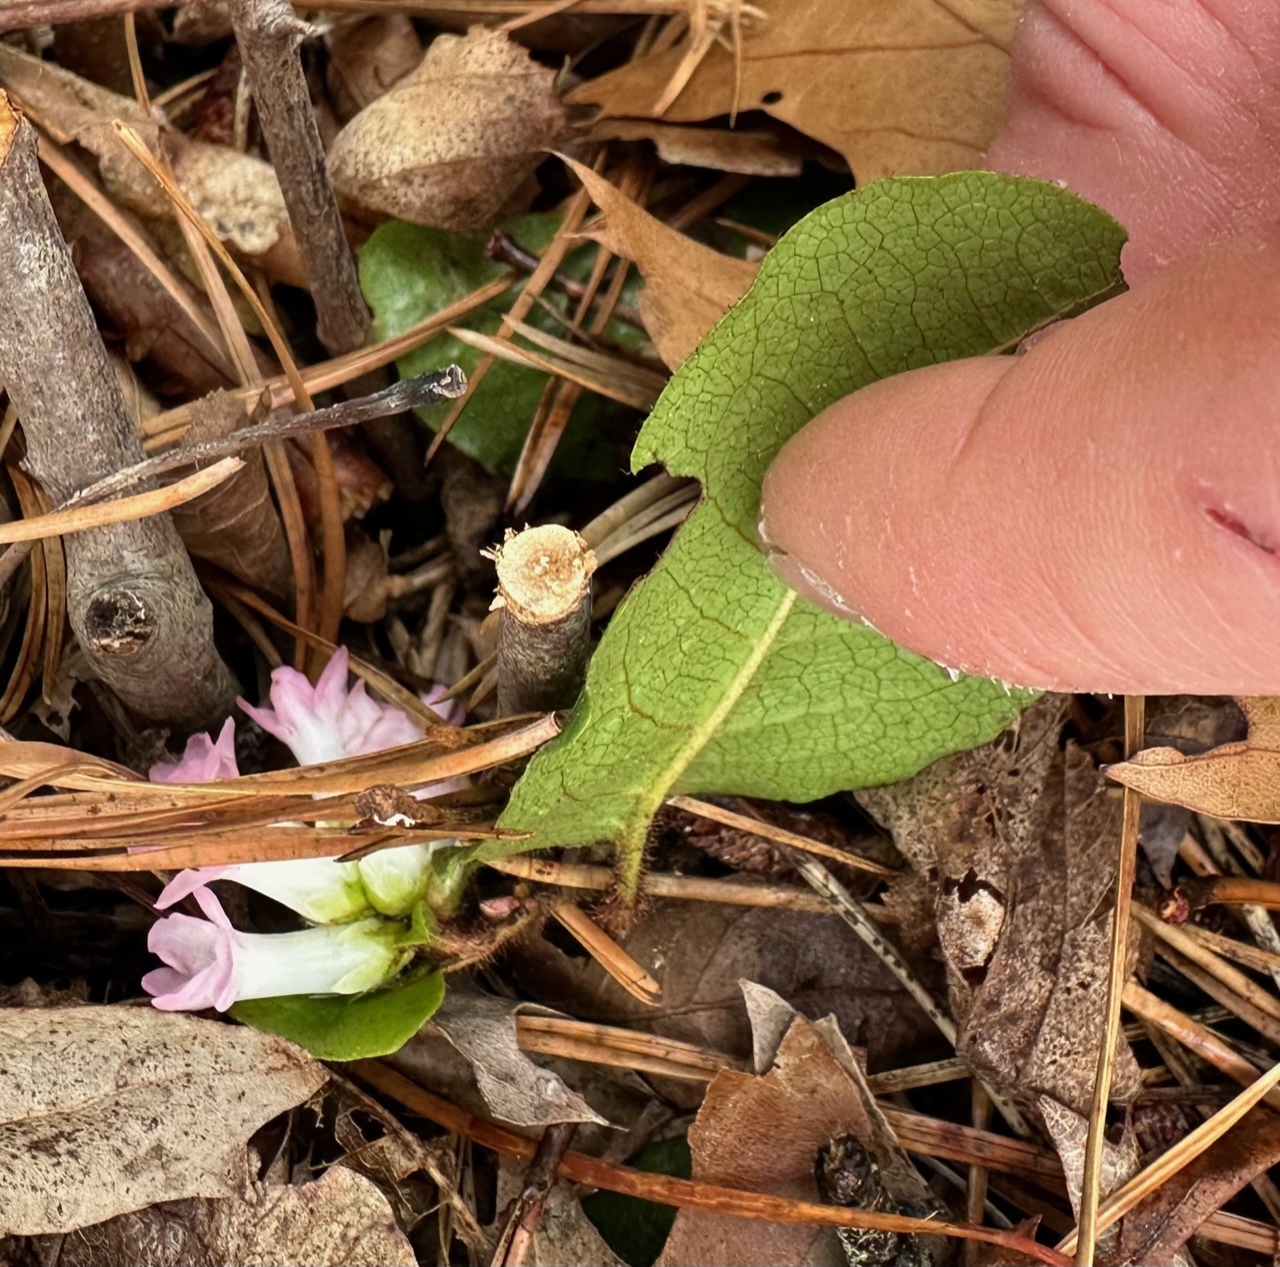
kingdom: Plantae
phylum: Tracheophyta
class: Magnoliopsida
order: Ericales
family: Ericaceae
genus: Epigaea
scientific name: Epigaea repens
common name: Gravelroot
